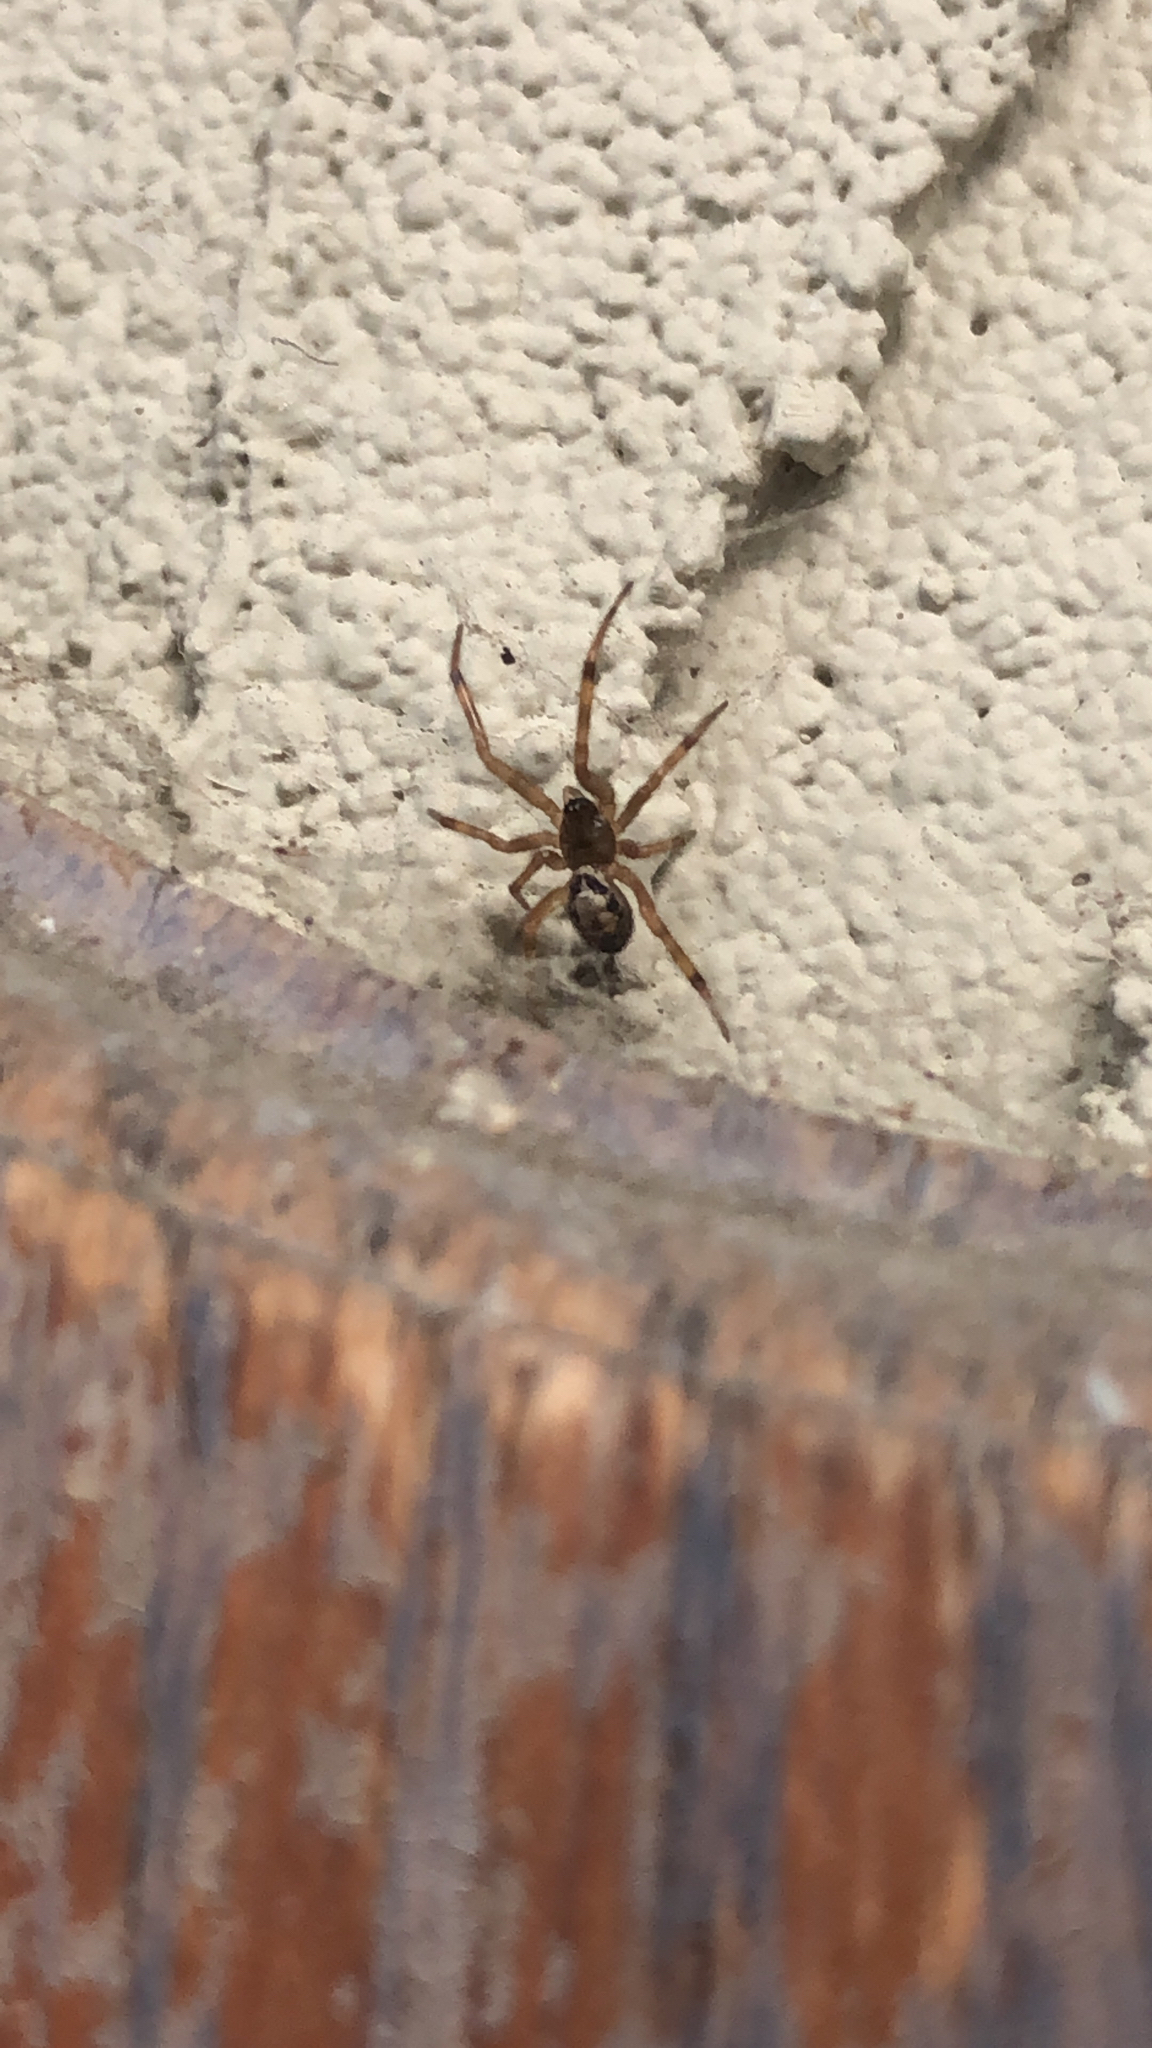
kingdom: Animalia
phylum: Arthropoda
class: Arachnida
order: Araneae
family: Theridiidae
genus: Steatoda
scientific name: Steatoda nobilis
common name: Cobweb weaver
